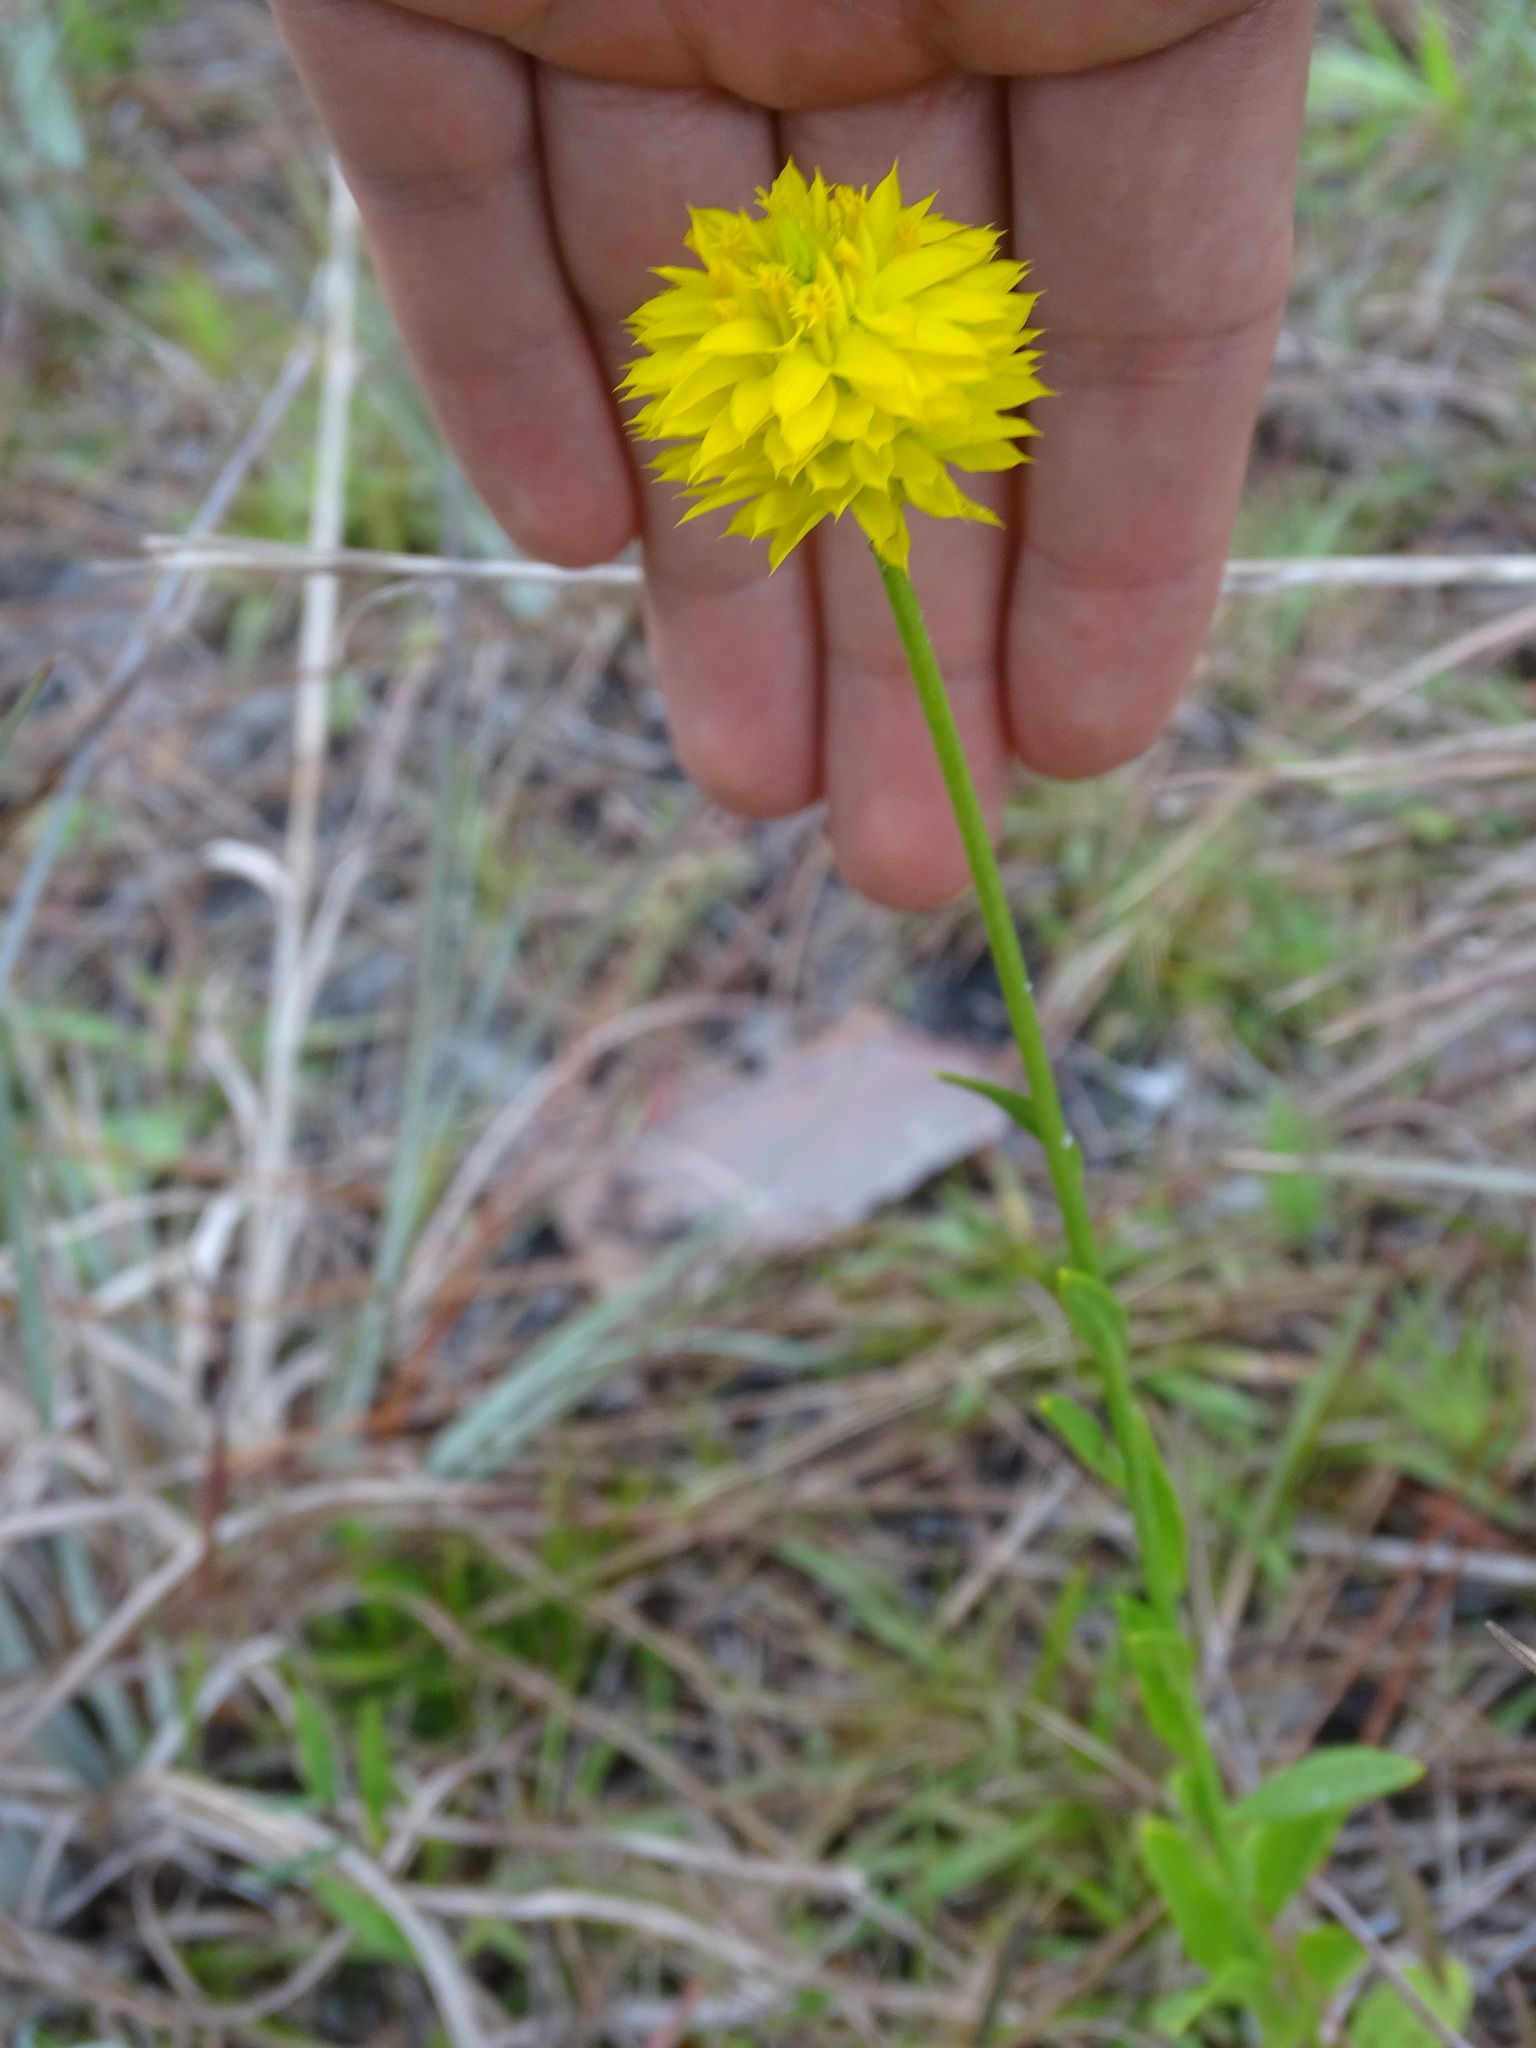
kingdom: Plantae
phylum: Tracheophyta
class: Magnoliopsida
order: Fabales
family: Polygalaceae
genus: Polygala
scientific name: Polygala rugelii
